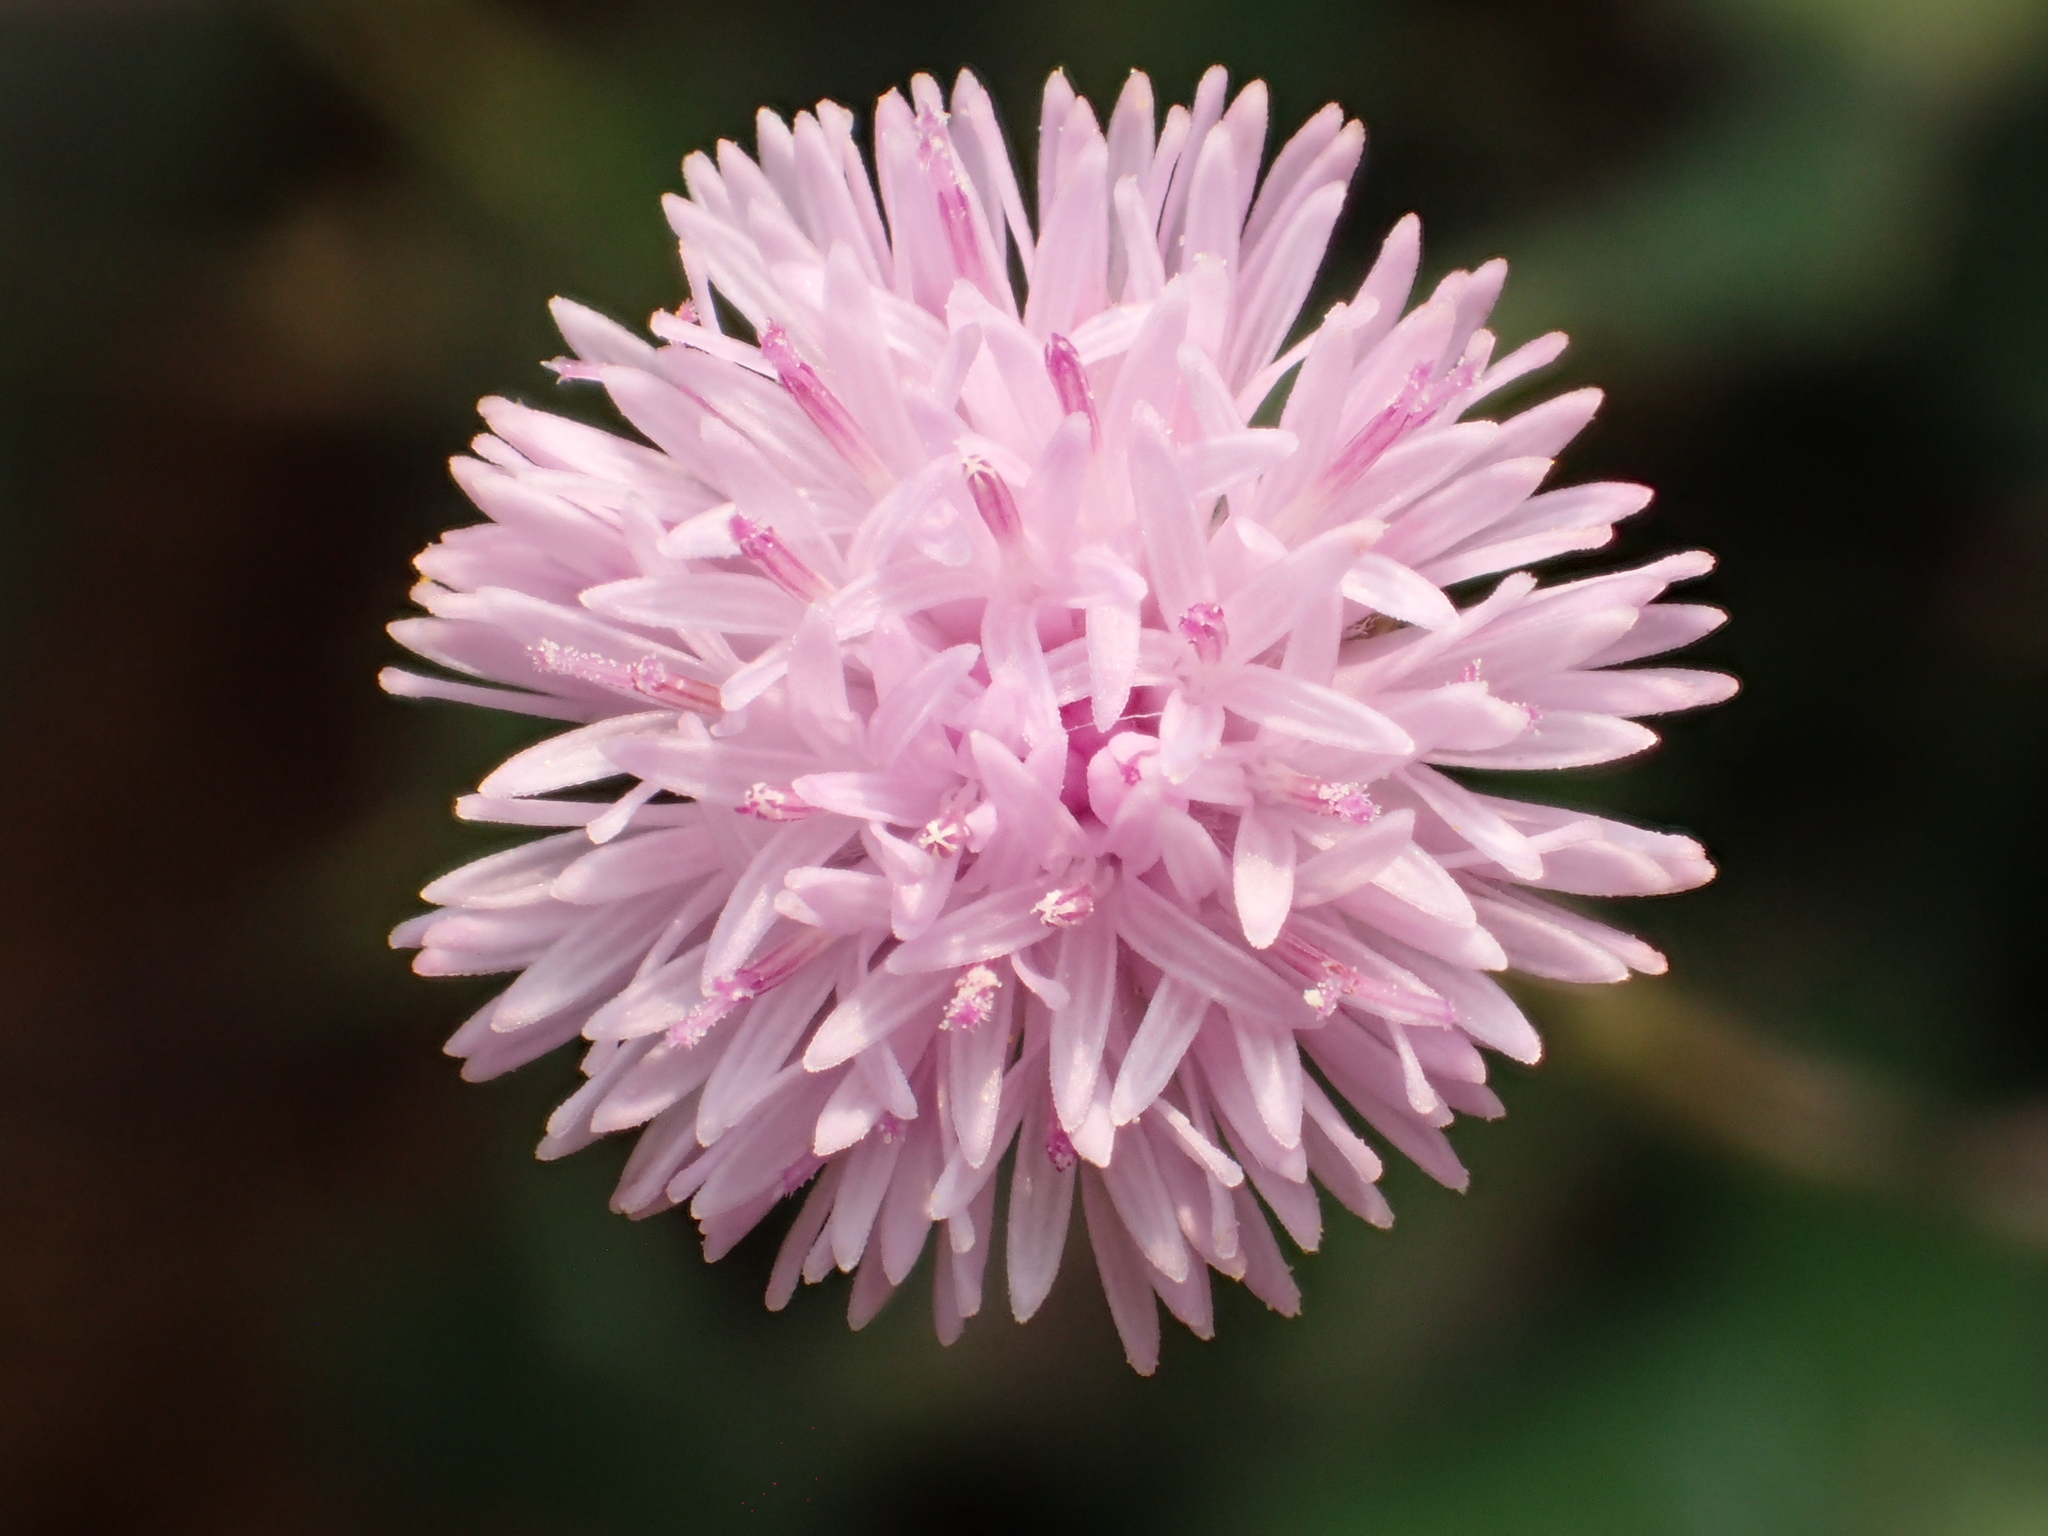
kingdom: Plantae
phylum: Tracheophyta
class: Magnoliopsida
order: Asterales
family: Asteraceae
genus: Emilia
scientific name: Emilia javanica
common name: Tassel-flower
